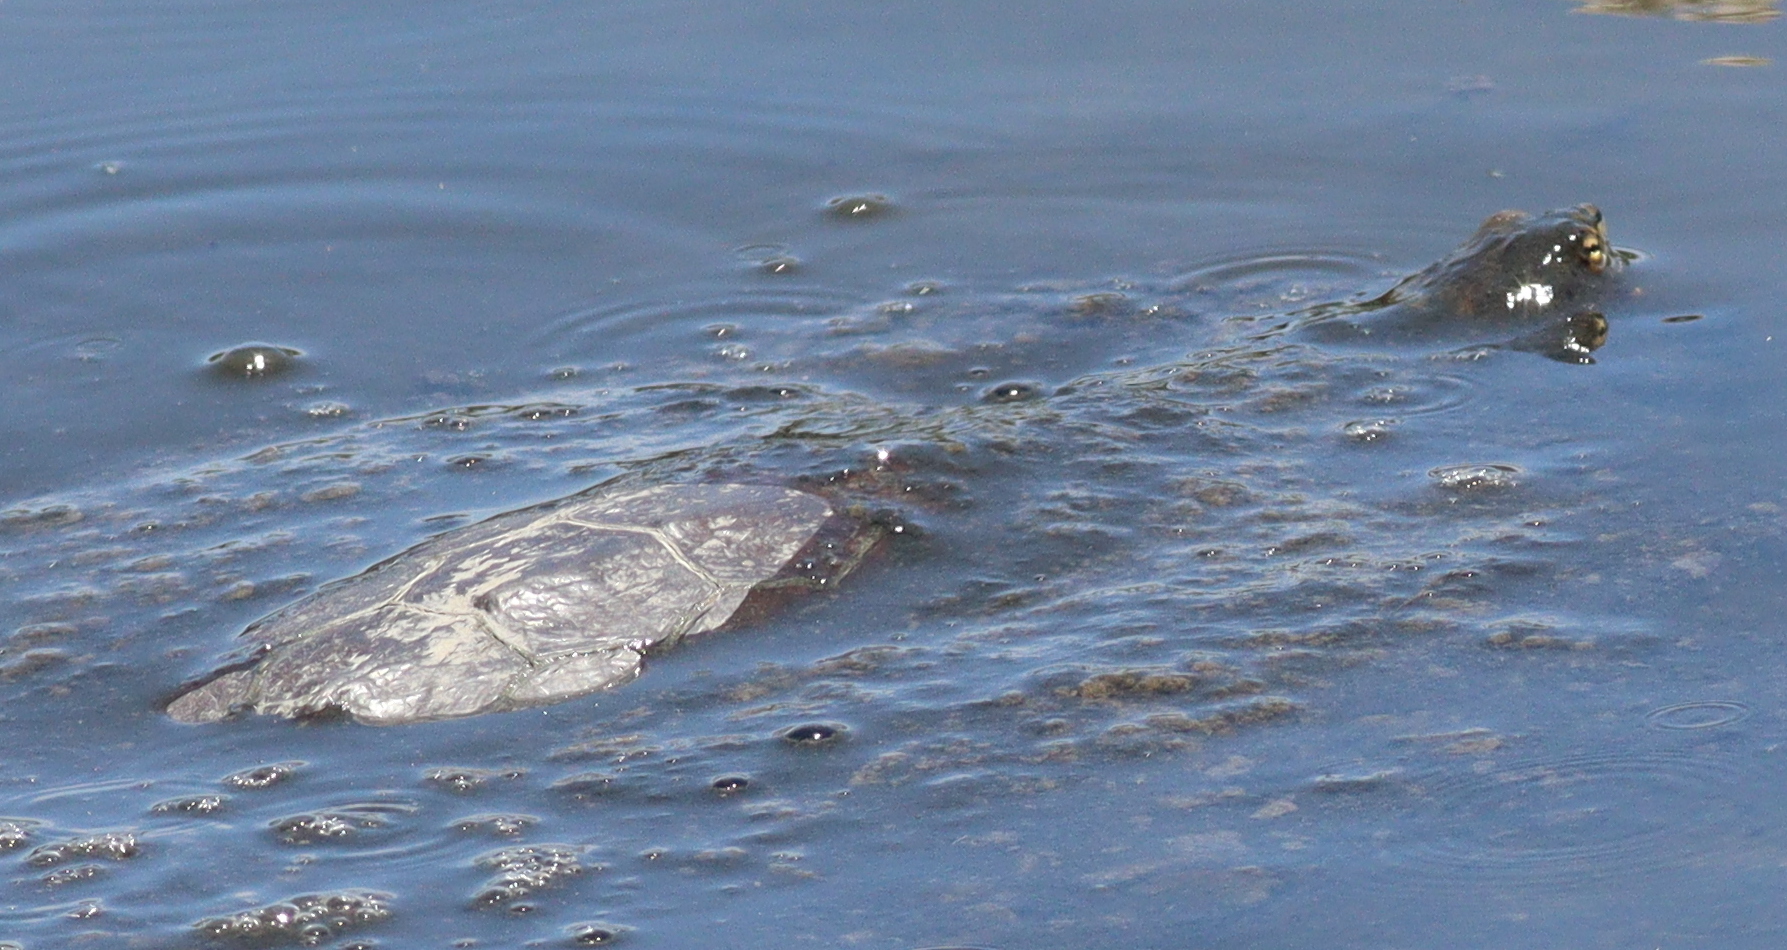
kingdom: Animalia
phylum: Chordata
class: Testudines
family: Chelidae
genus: Phrynops
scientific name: Phrynops hilarii
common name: Side-necked turtle of saint hillaire
